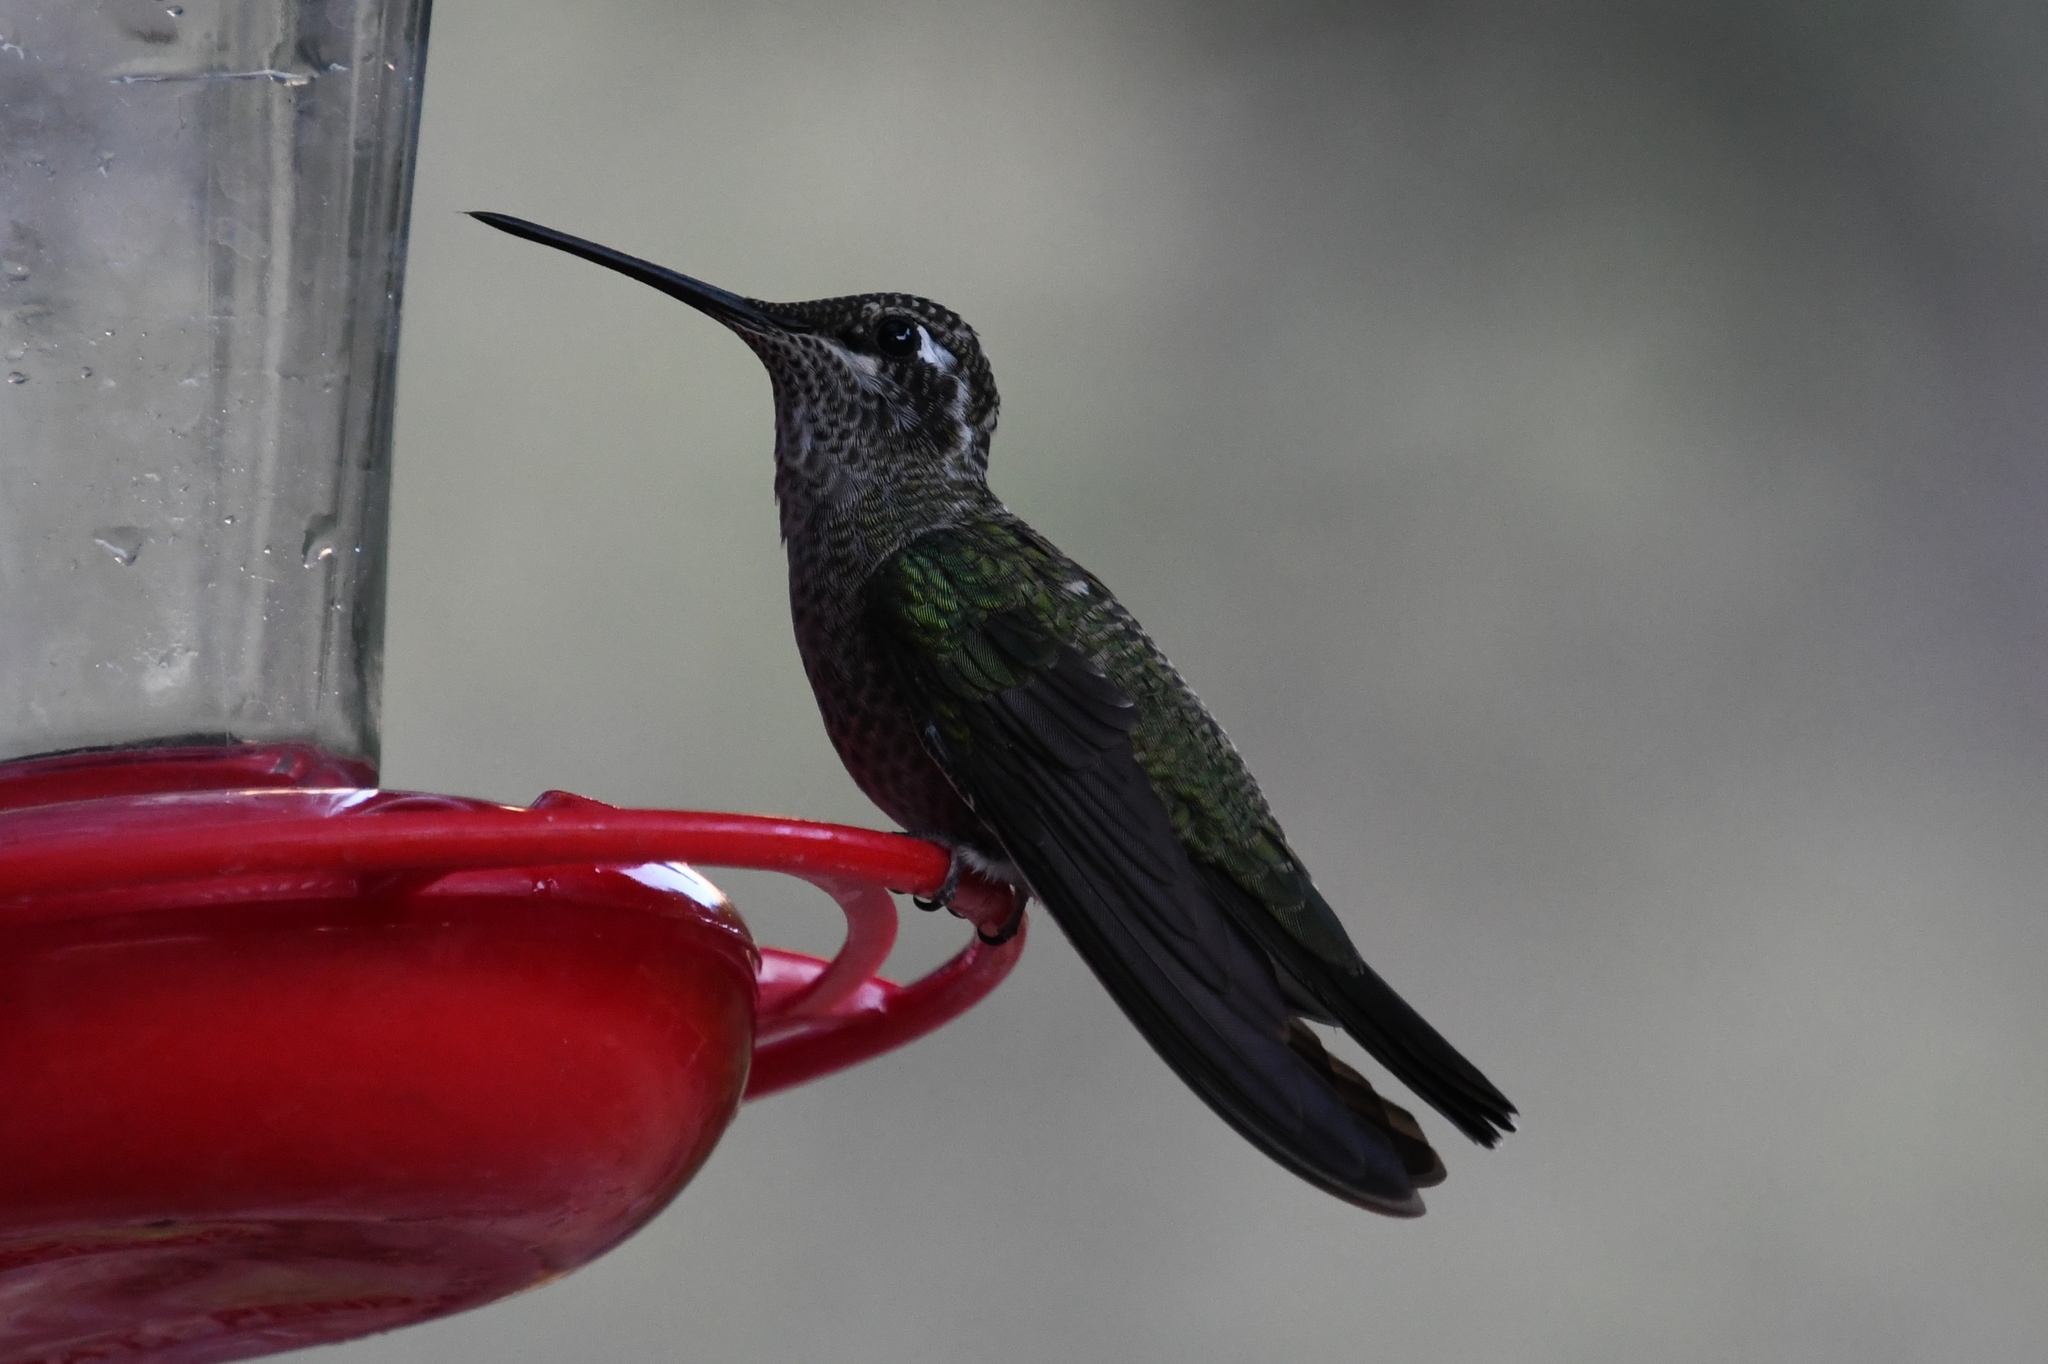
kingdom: Animalia
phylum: Chordata
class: Aves
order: Apodiformes
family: Trochilidae
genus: Eugenes
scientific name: Eugenes fulgens
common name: Magnificent hummingbird
